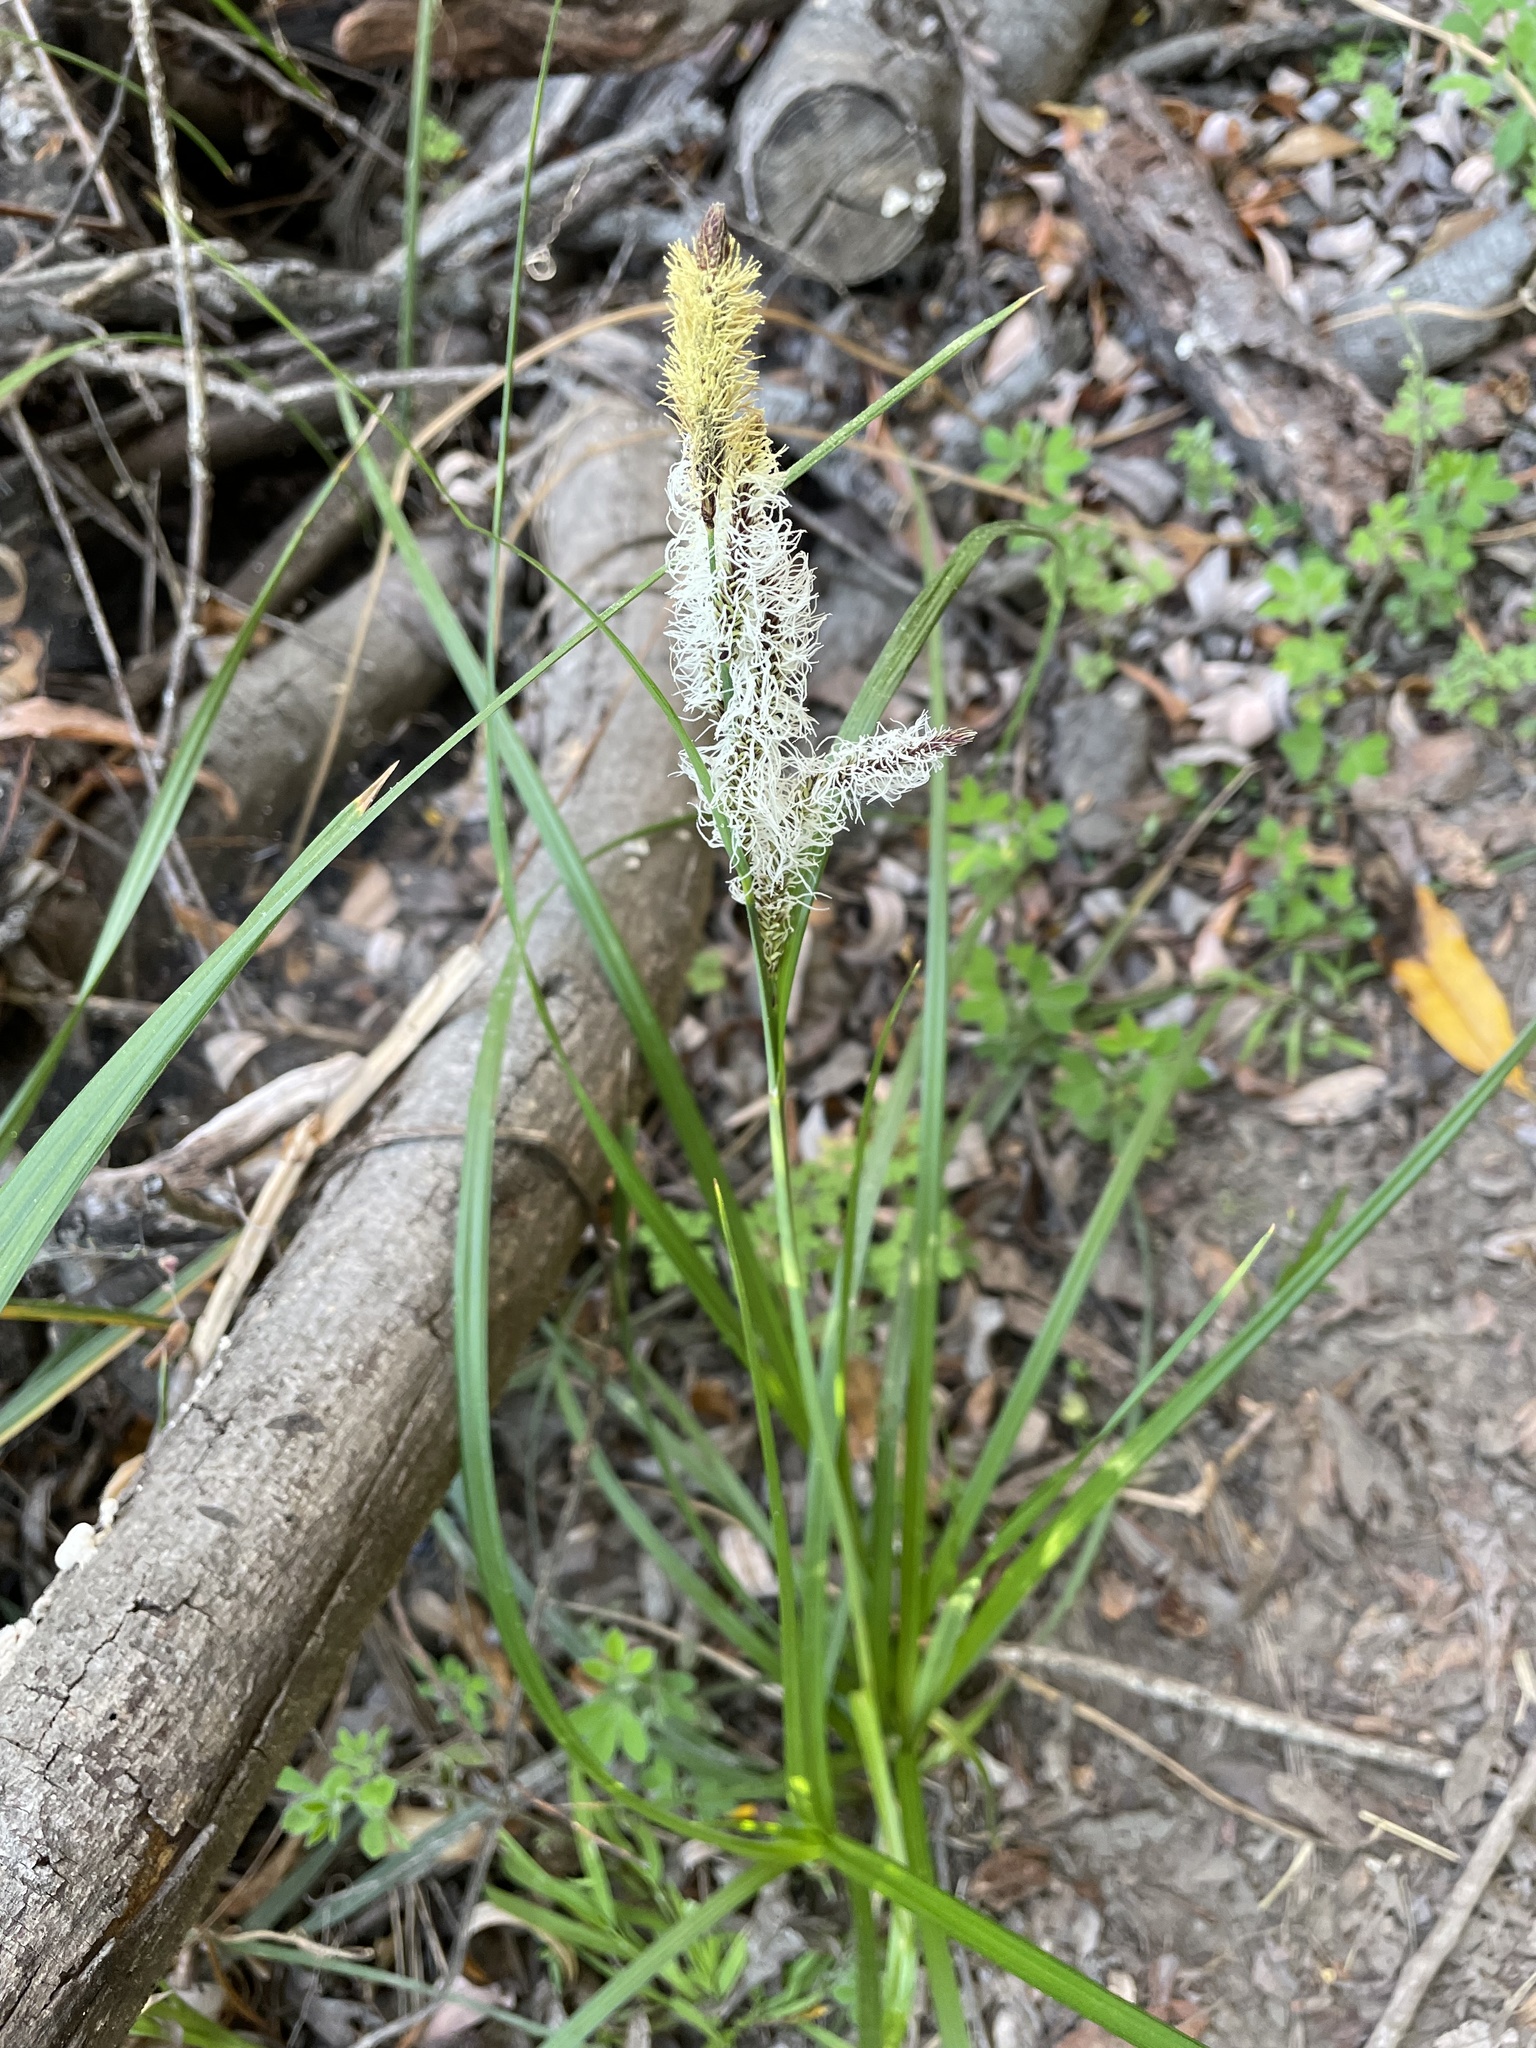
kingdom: Plantae
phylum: Tracheophyta
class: Liliopsida
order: Poales
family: Cyperaceae
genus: Carex
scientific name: Carex barbarae
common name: Santa barbara sedge
